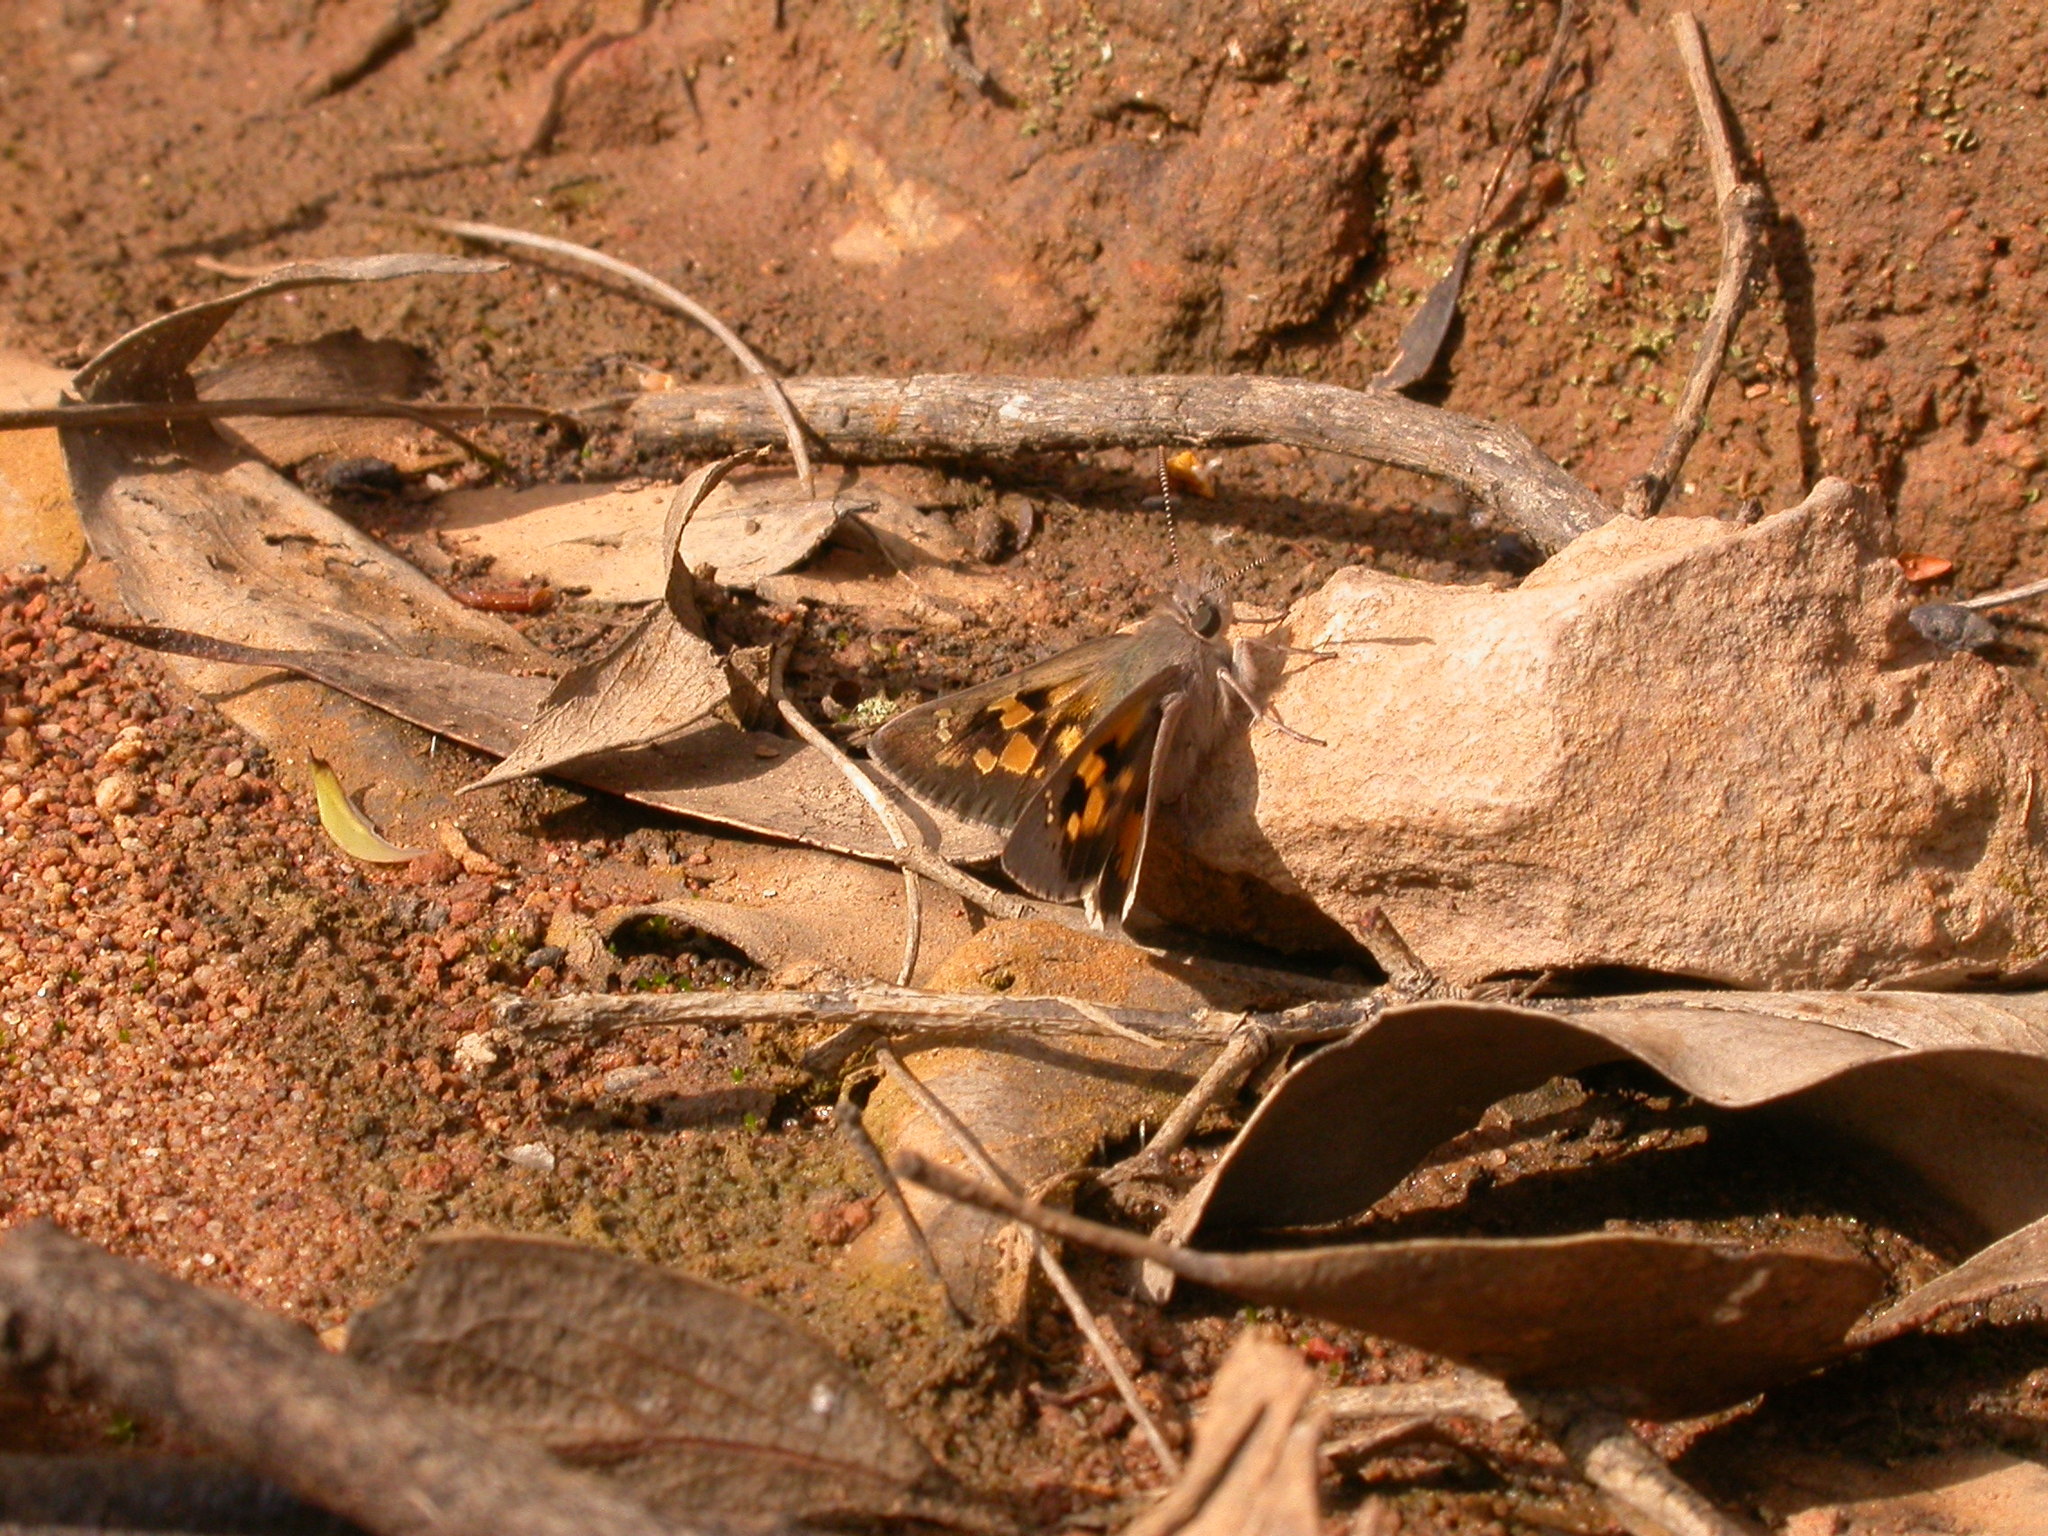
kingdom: Animalia
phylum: Arthropoda
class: Insecta
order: Lepidoptera
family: Hesperiidae
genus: Trapezites
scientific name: Trapezites phigalia
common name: Heath ochre
